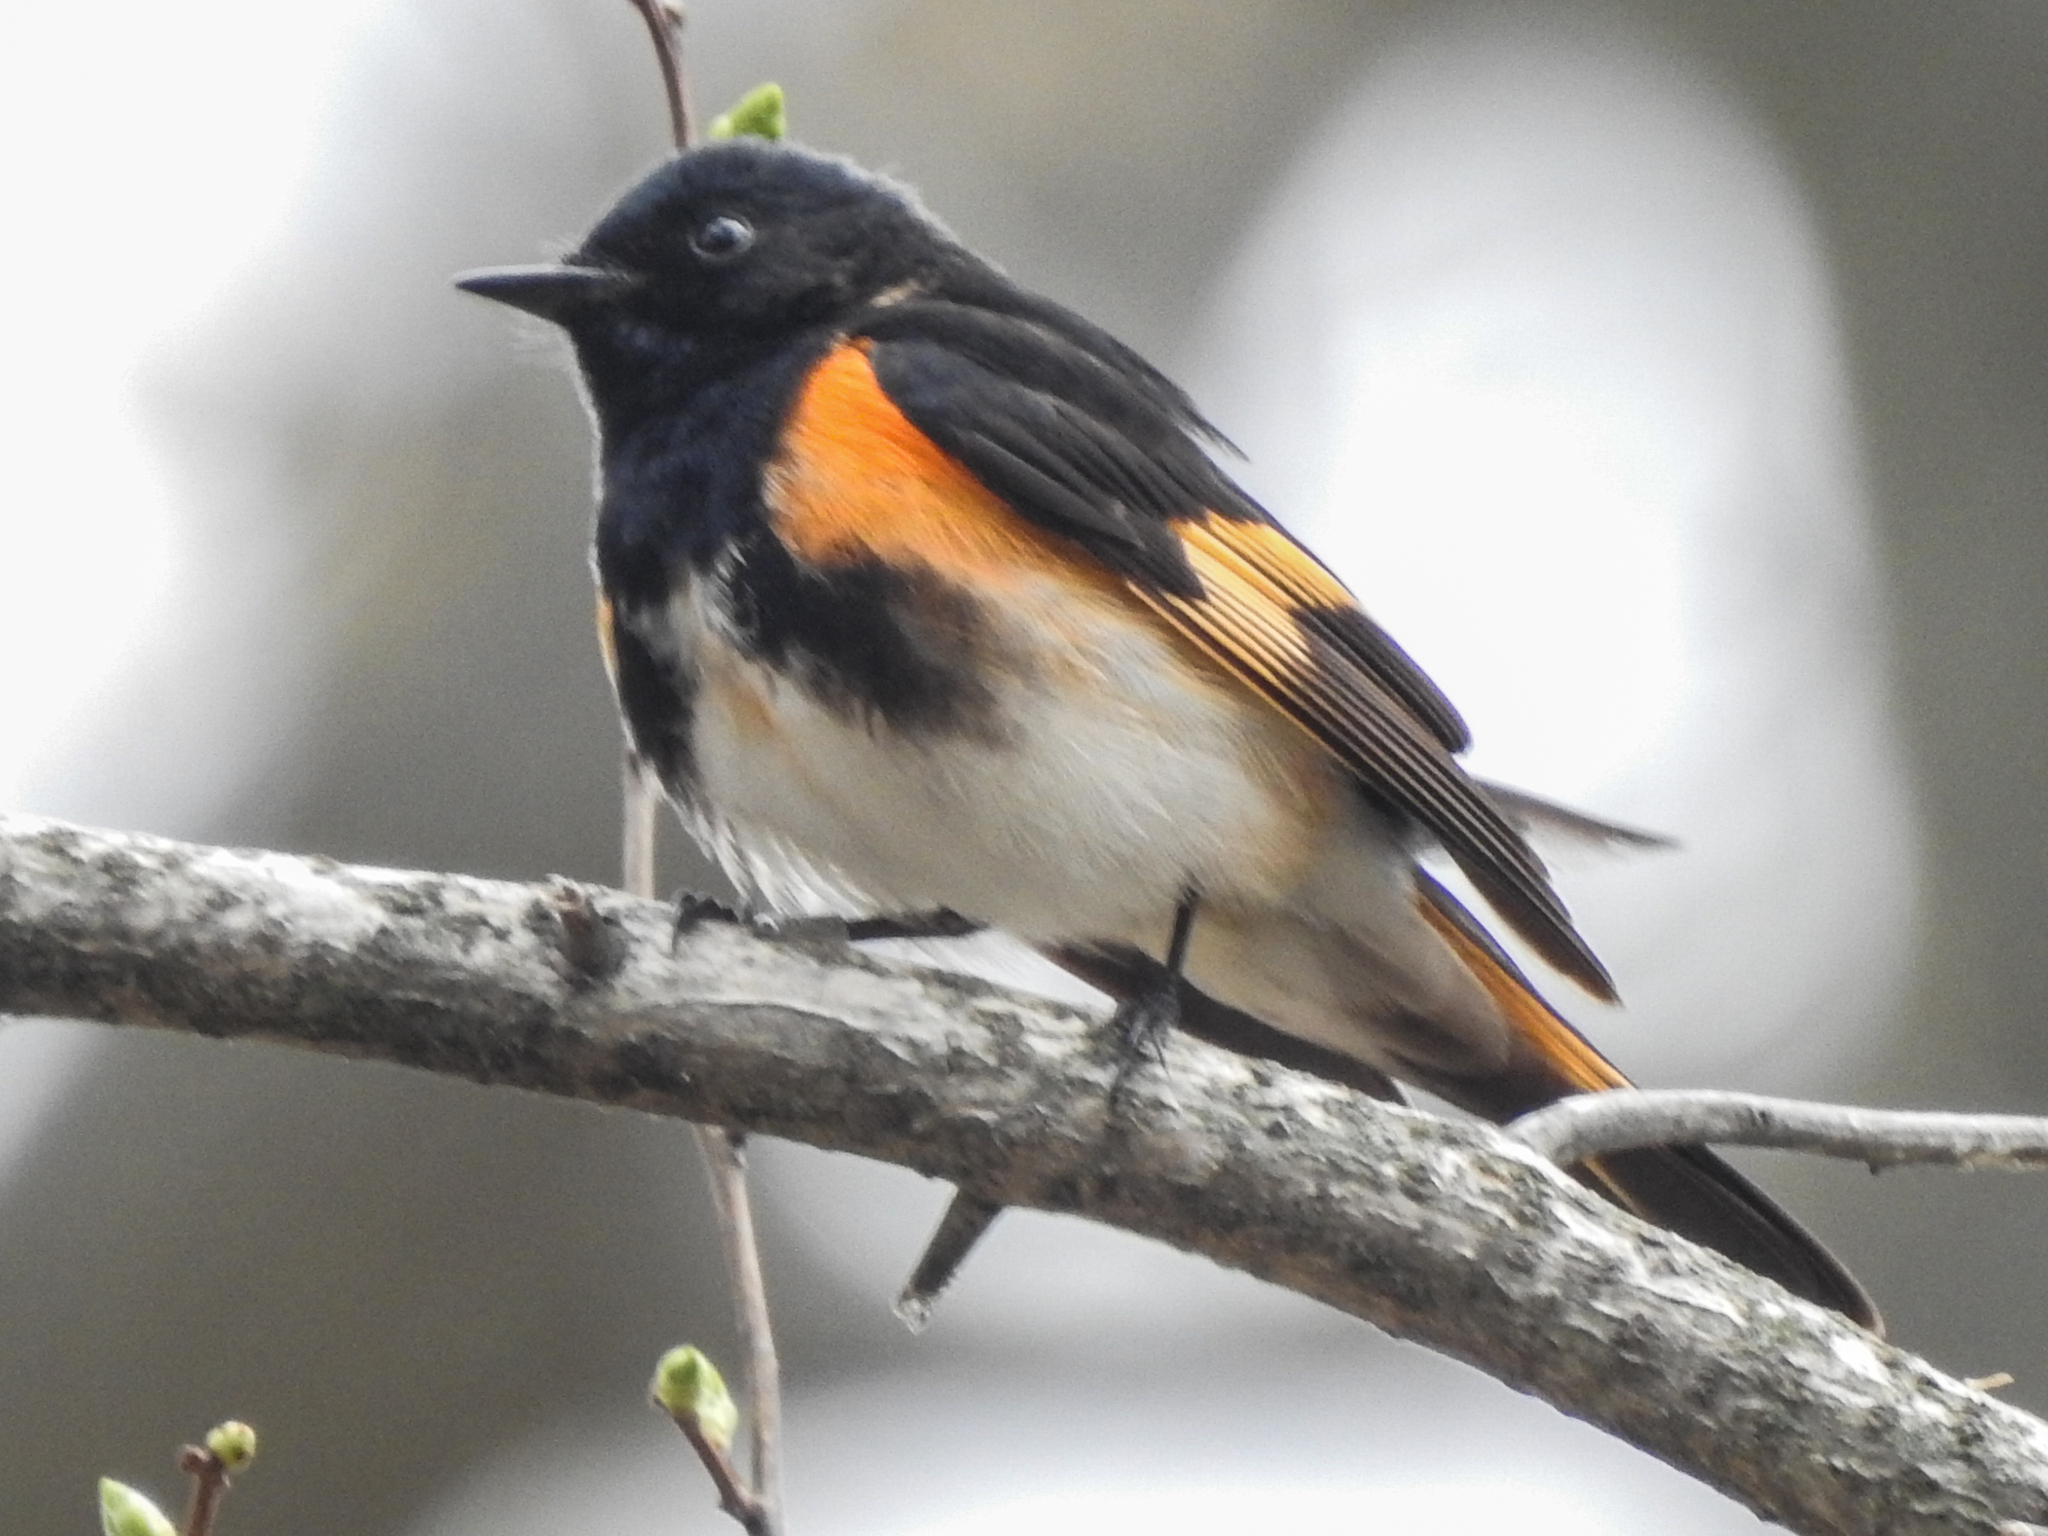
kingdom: Animalia
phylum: Chordata
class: Aves
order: Passeriformes
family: Parulidae
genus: Setophaga
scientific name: Setophaga ruticilla
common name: American redstart
